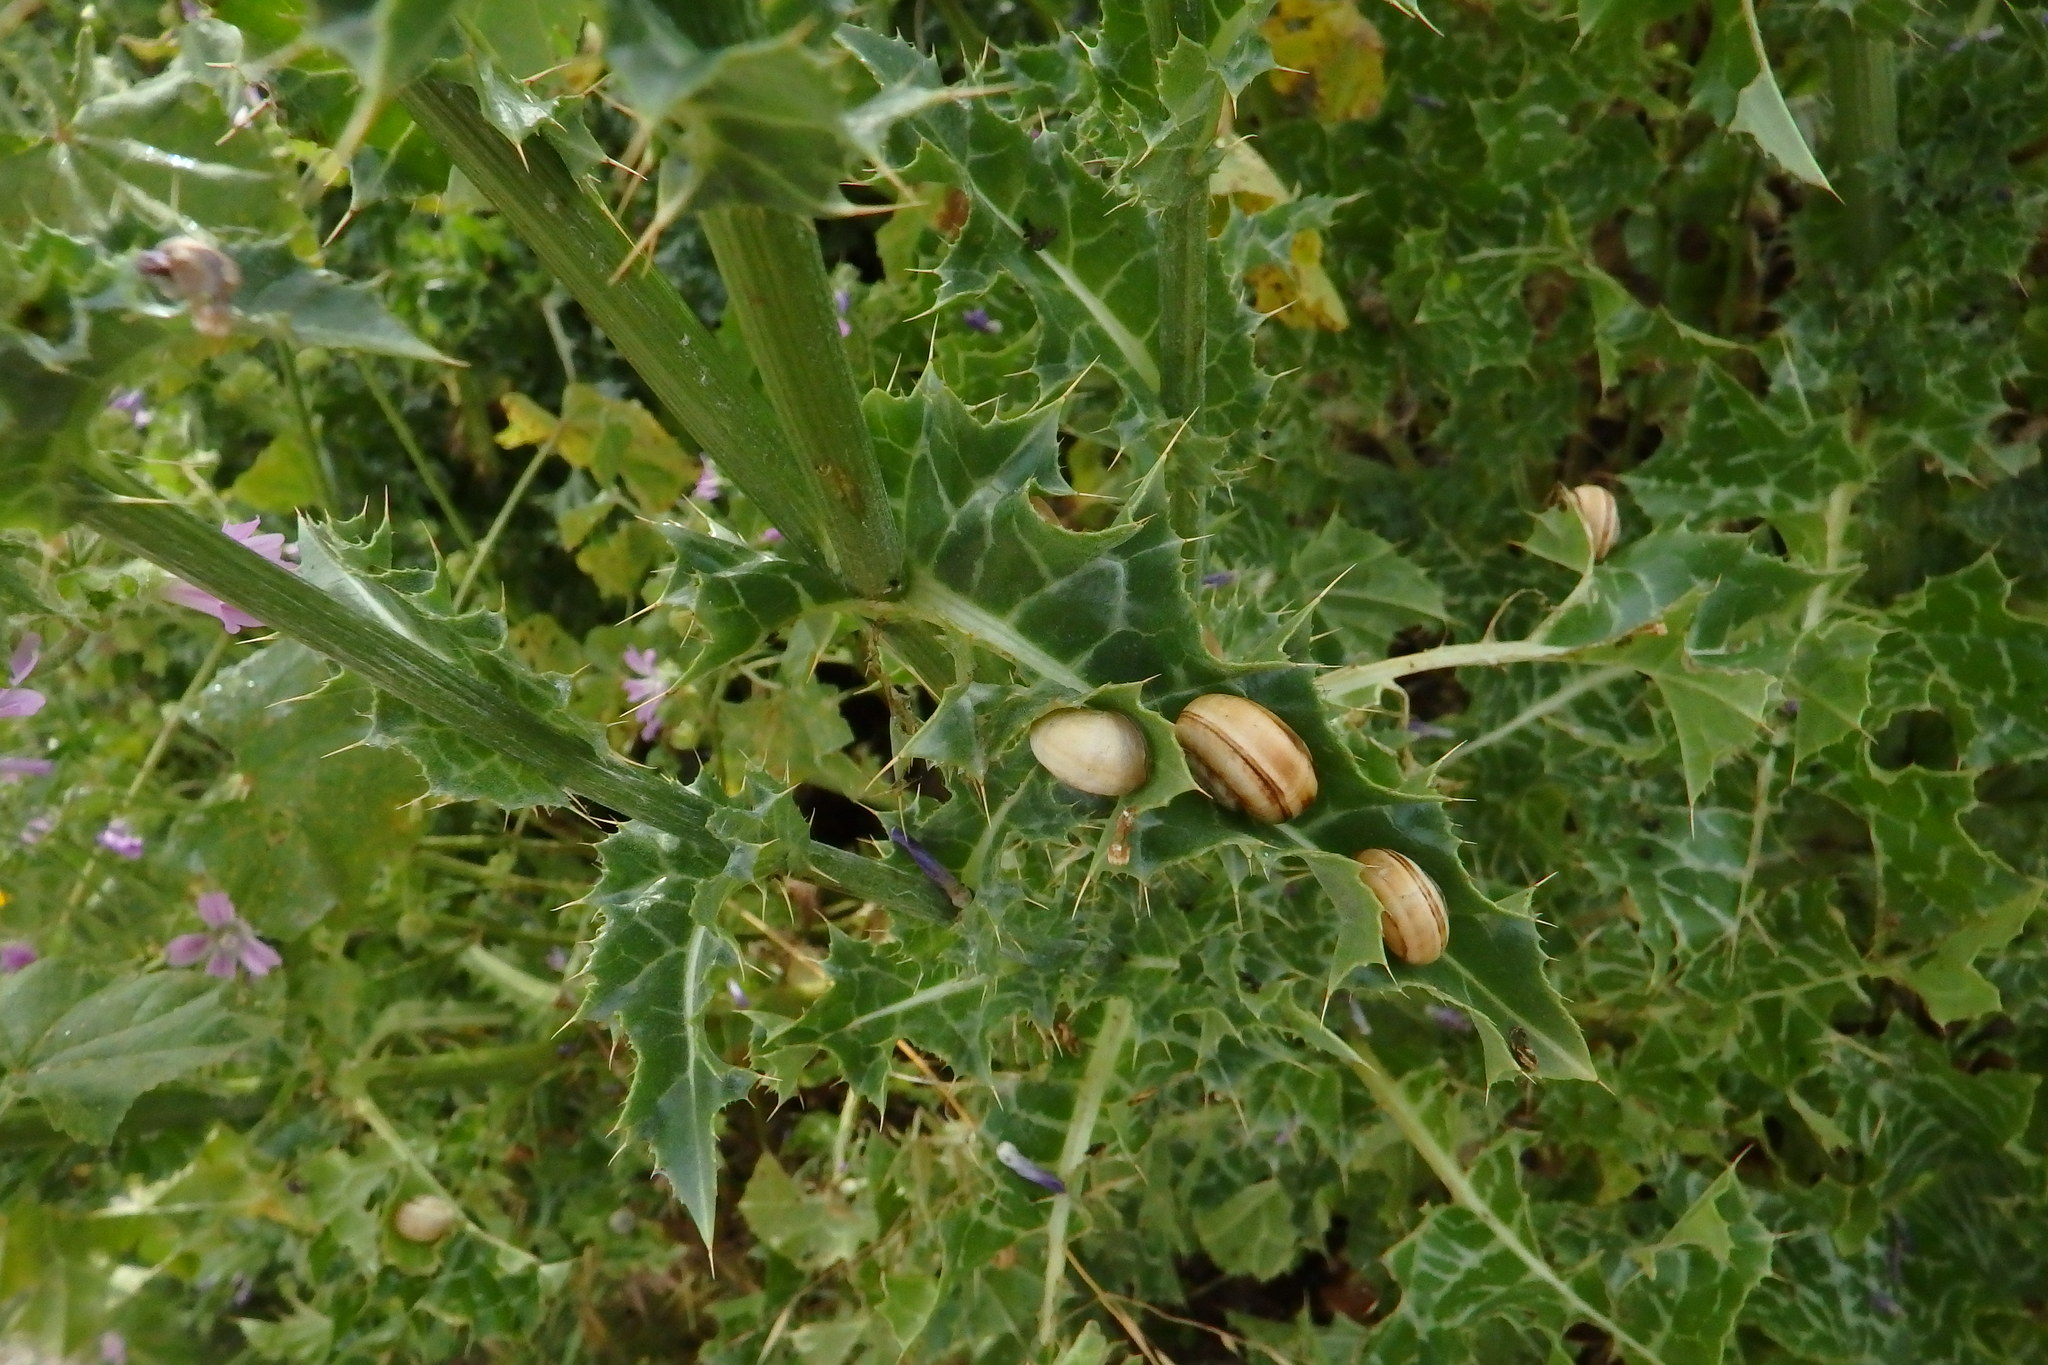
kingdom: Animalia
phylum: Mollusca
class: Gastropoda
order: Stylommatophora
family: Helicidae
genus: Theba
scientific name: Theba pisana
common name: White snail
